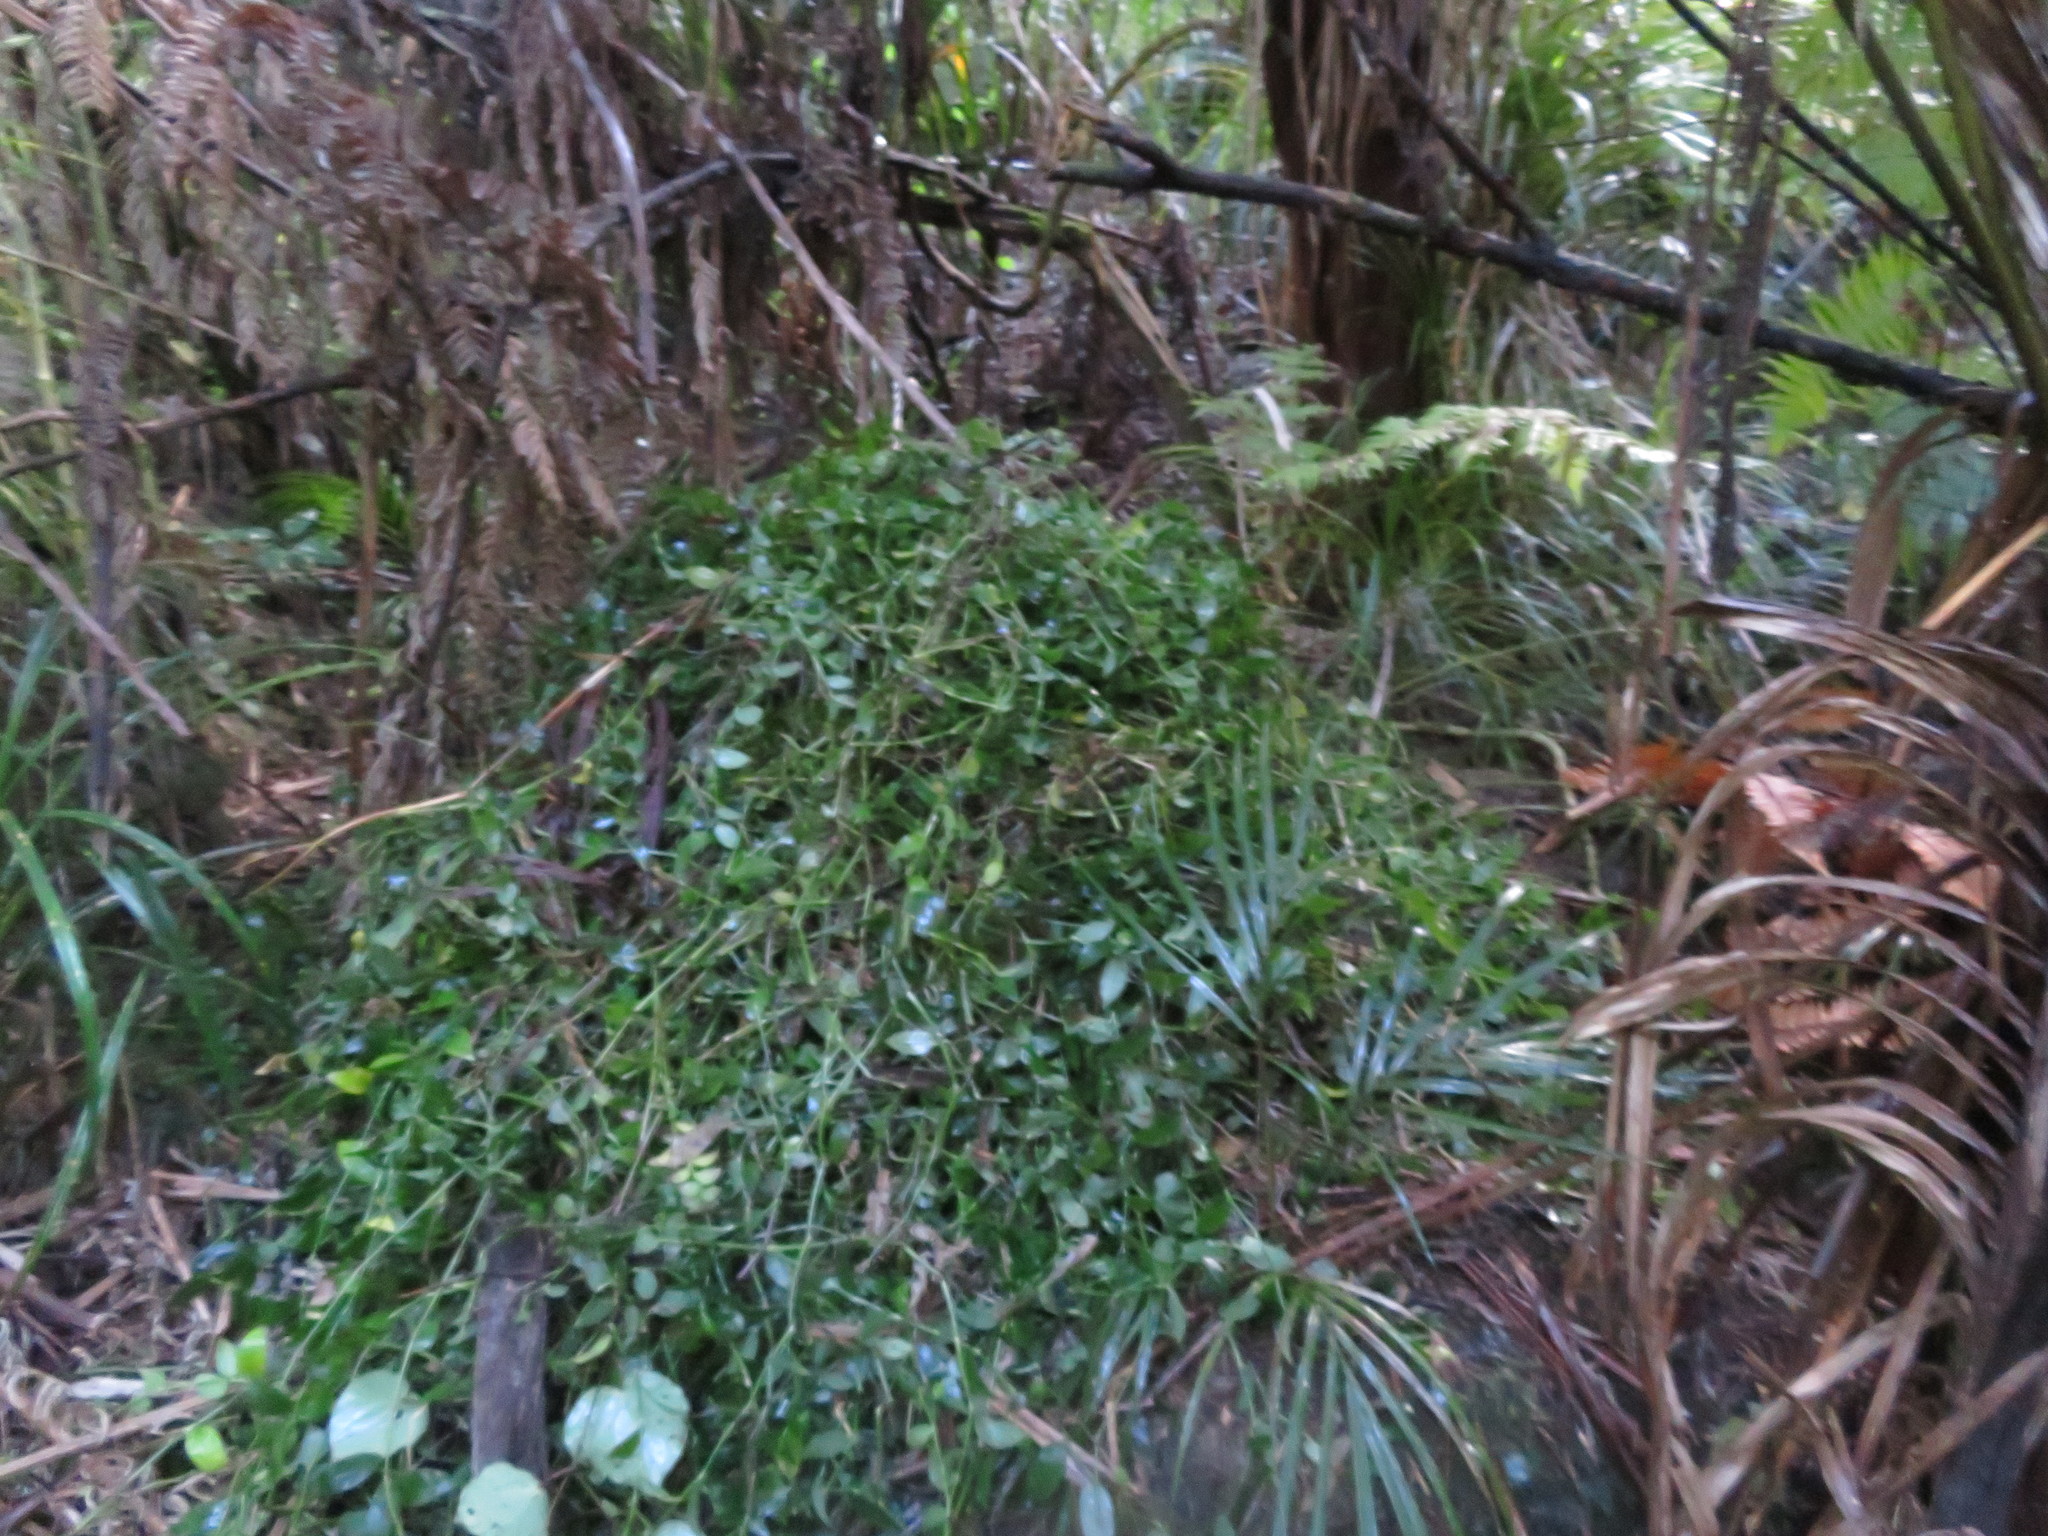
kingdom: Plantae
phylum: Tracheophyta
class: Liliopsida
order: Commelinales
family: Commelinaceae
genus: Tradescantia
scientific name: Tradescantia fluminensis
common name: Wandering-jew
